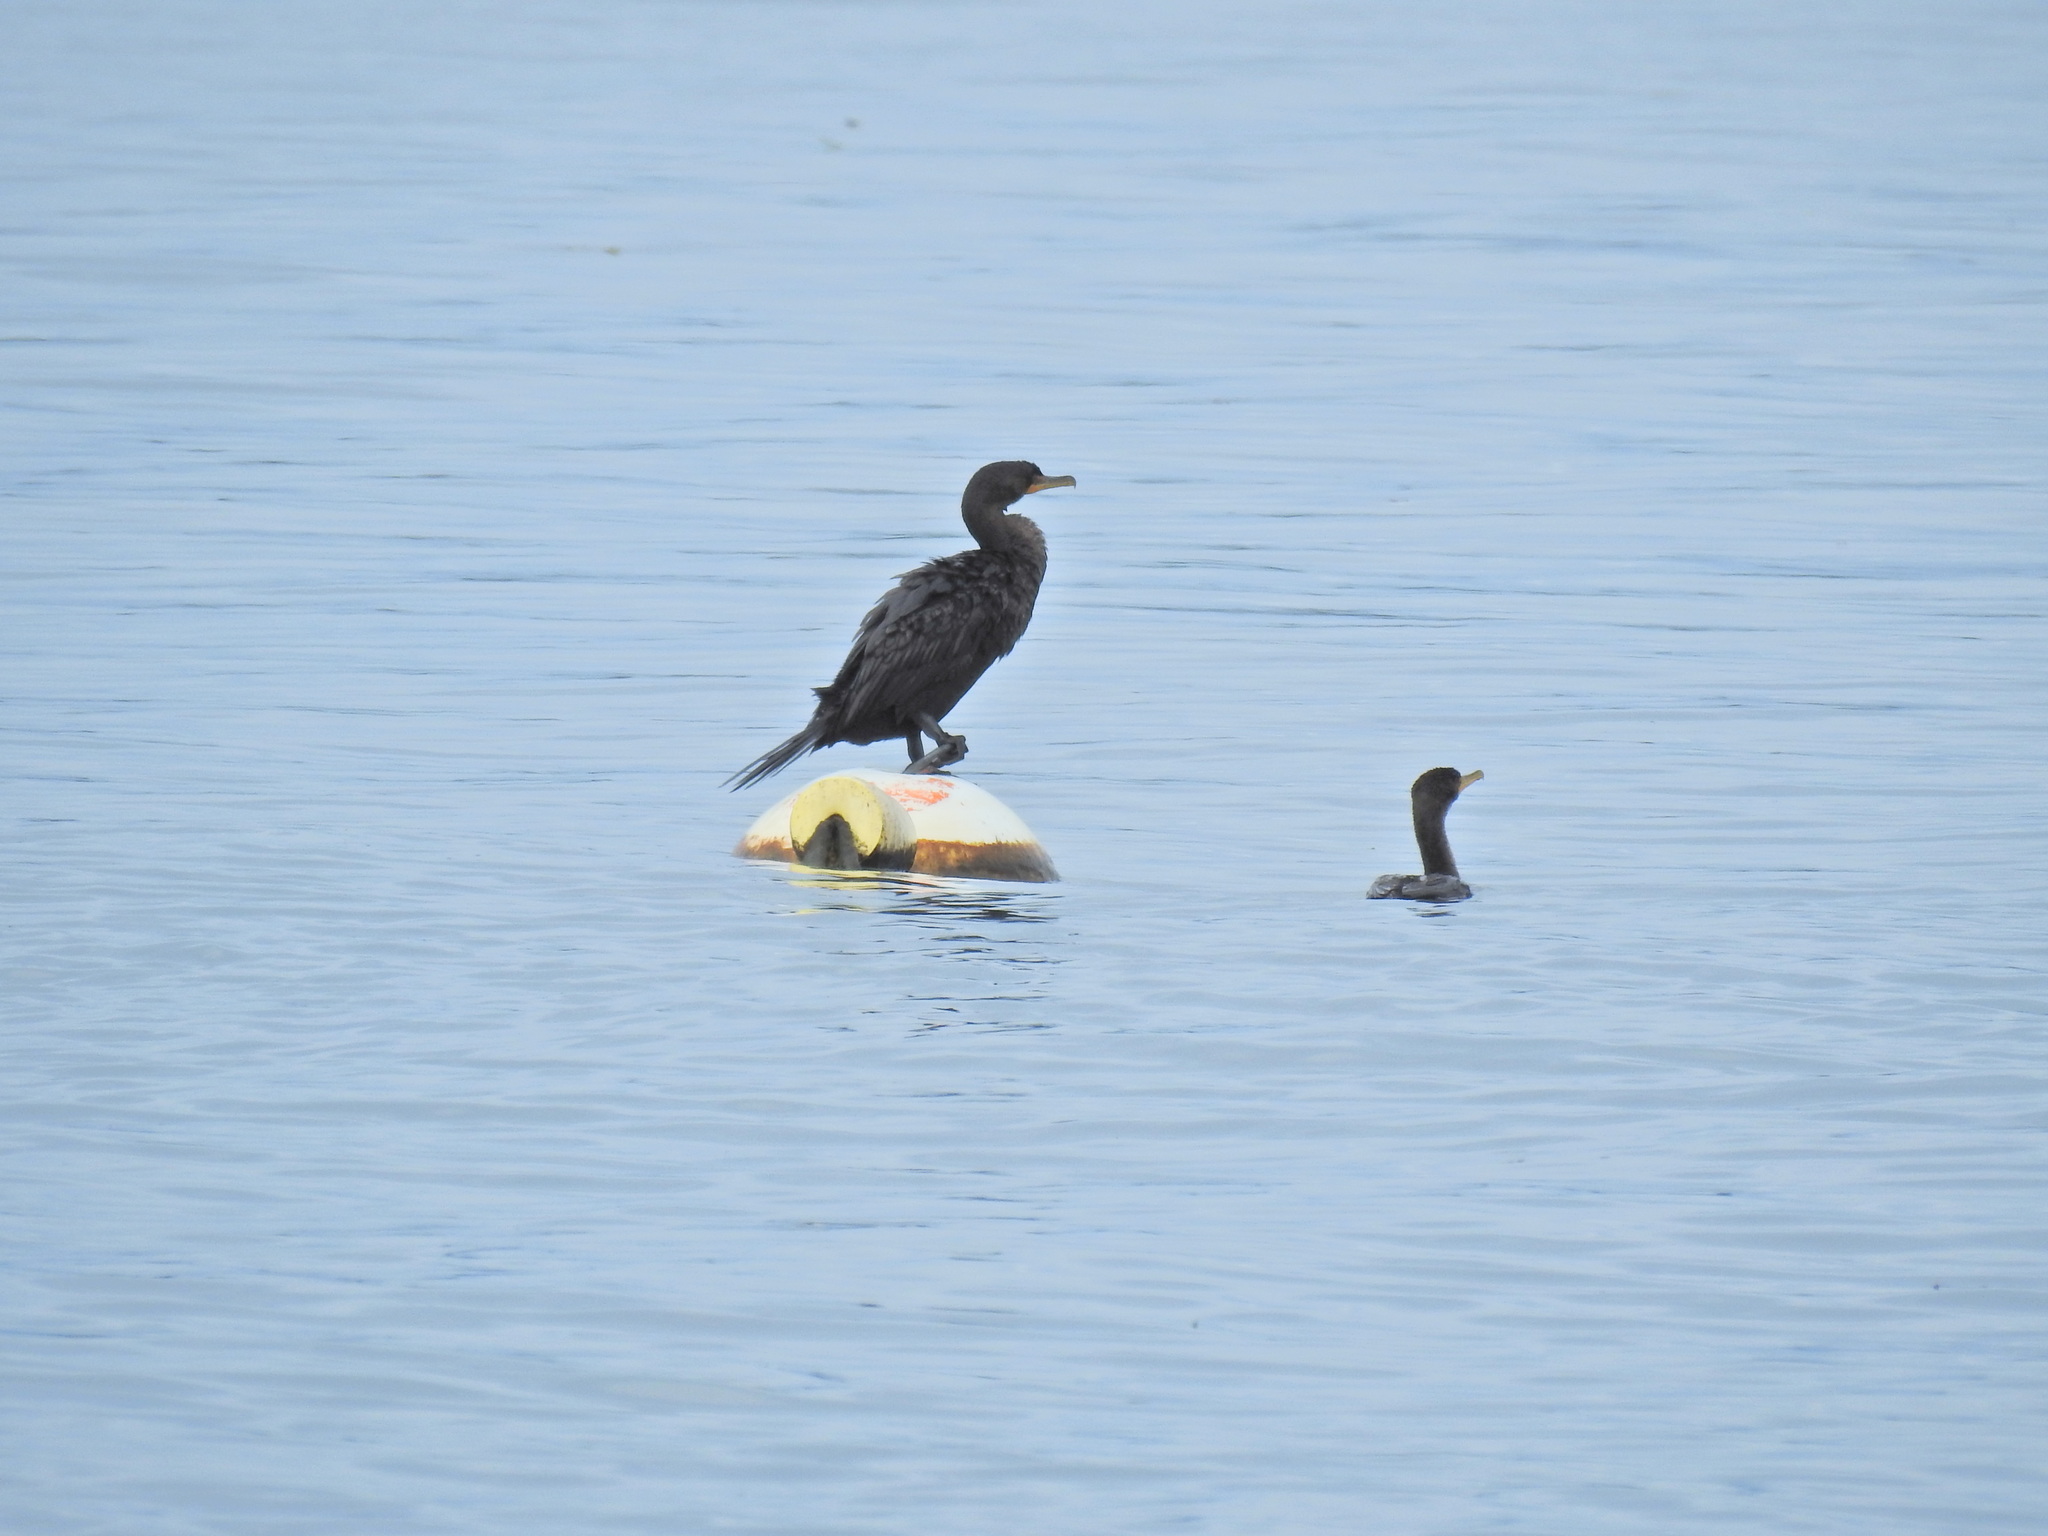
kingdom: Animalia
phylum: Chordata
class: Aves
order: Suliformes
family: Phalacrocoracidae
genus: Phalacrocorax
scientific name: Phalacrocorax auritus
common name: Double-crested cormorant
